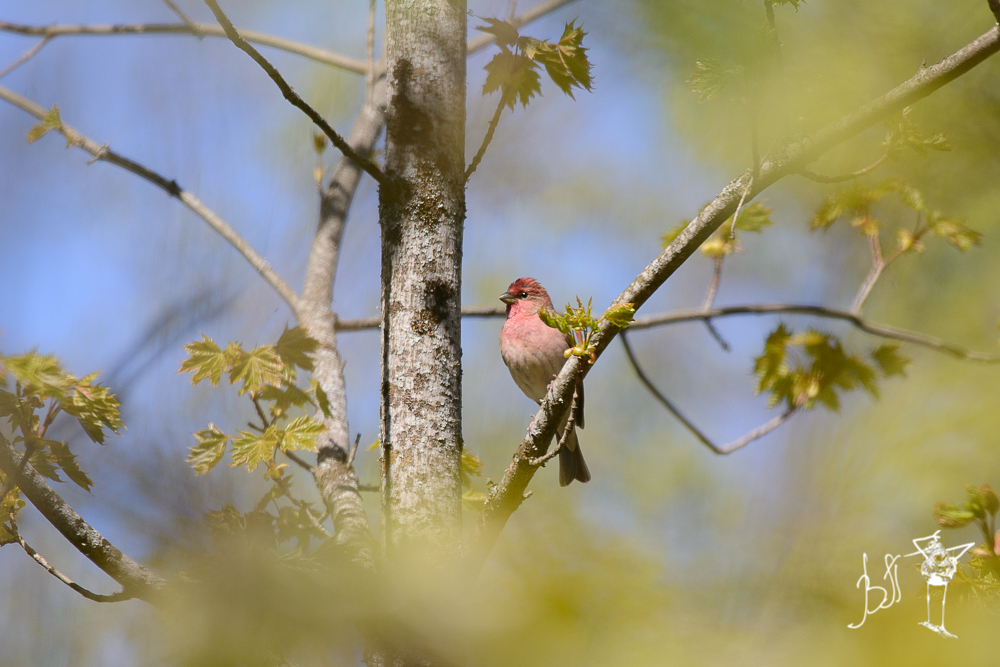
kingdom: Animalia
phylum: Chordata
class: Aves
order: Passeriformes
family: Fringillidae
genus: Carpodacus
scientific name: Carpodacus erythrinus
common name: Common rosefinch
